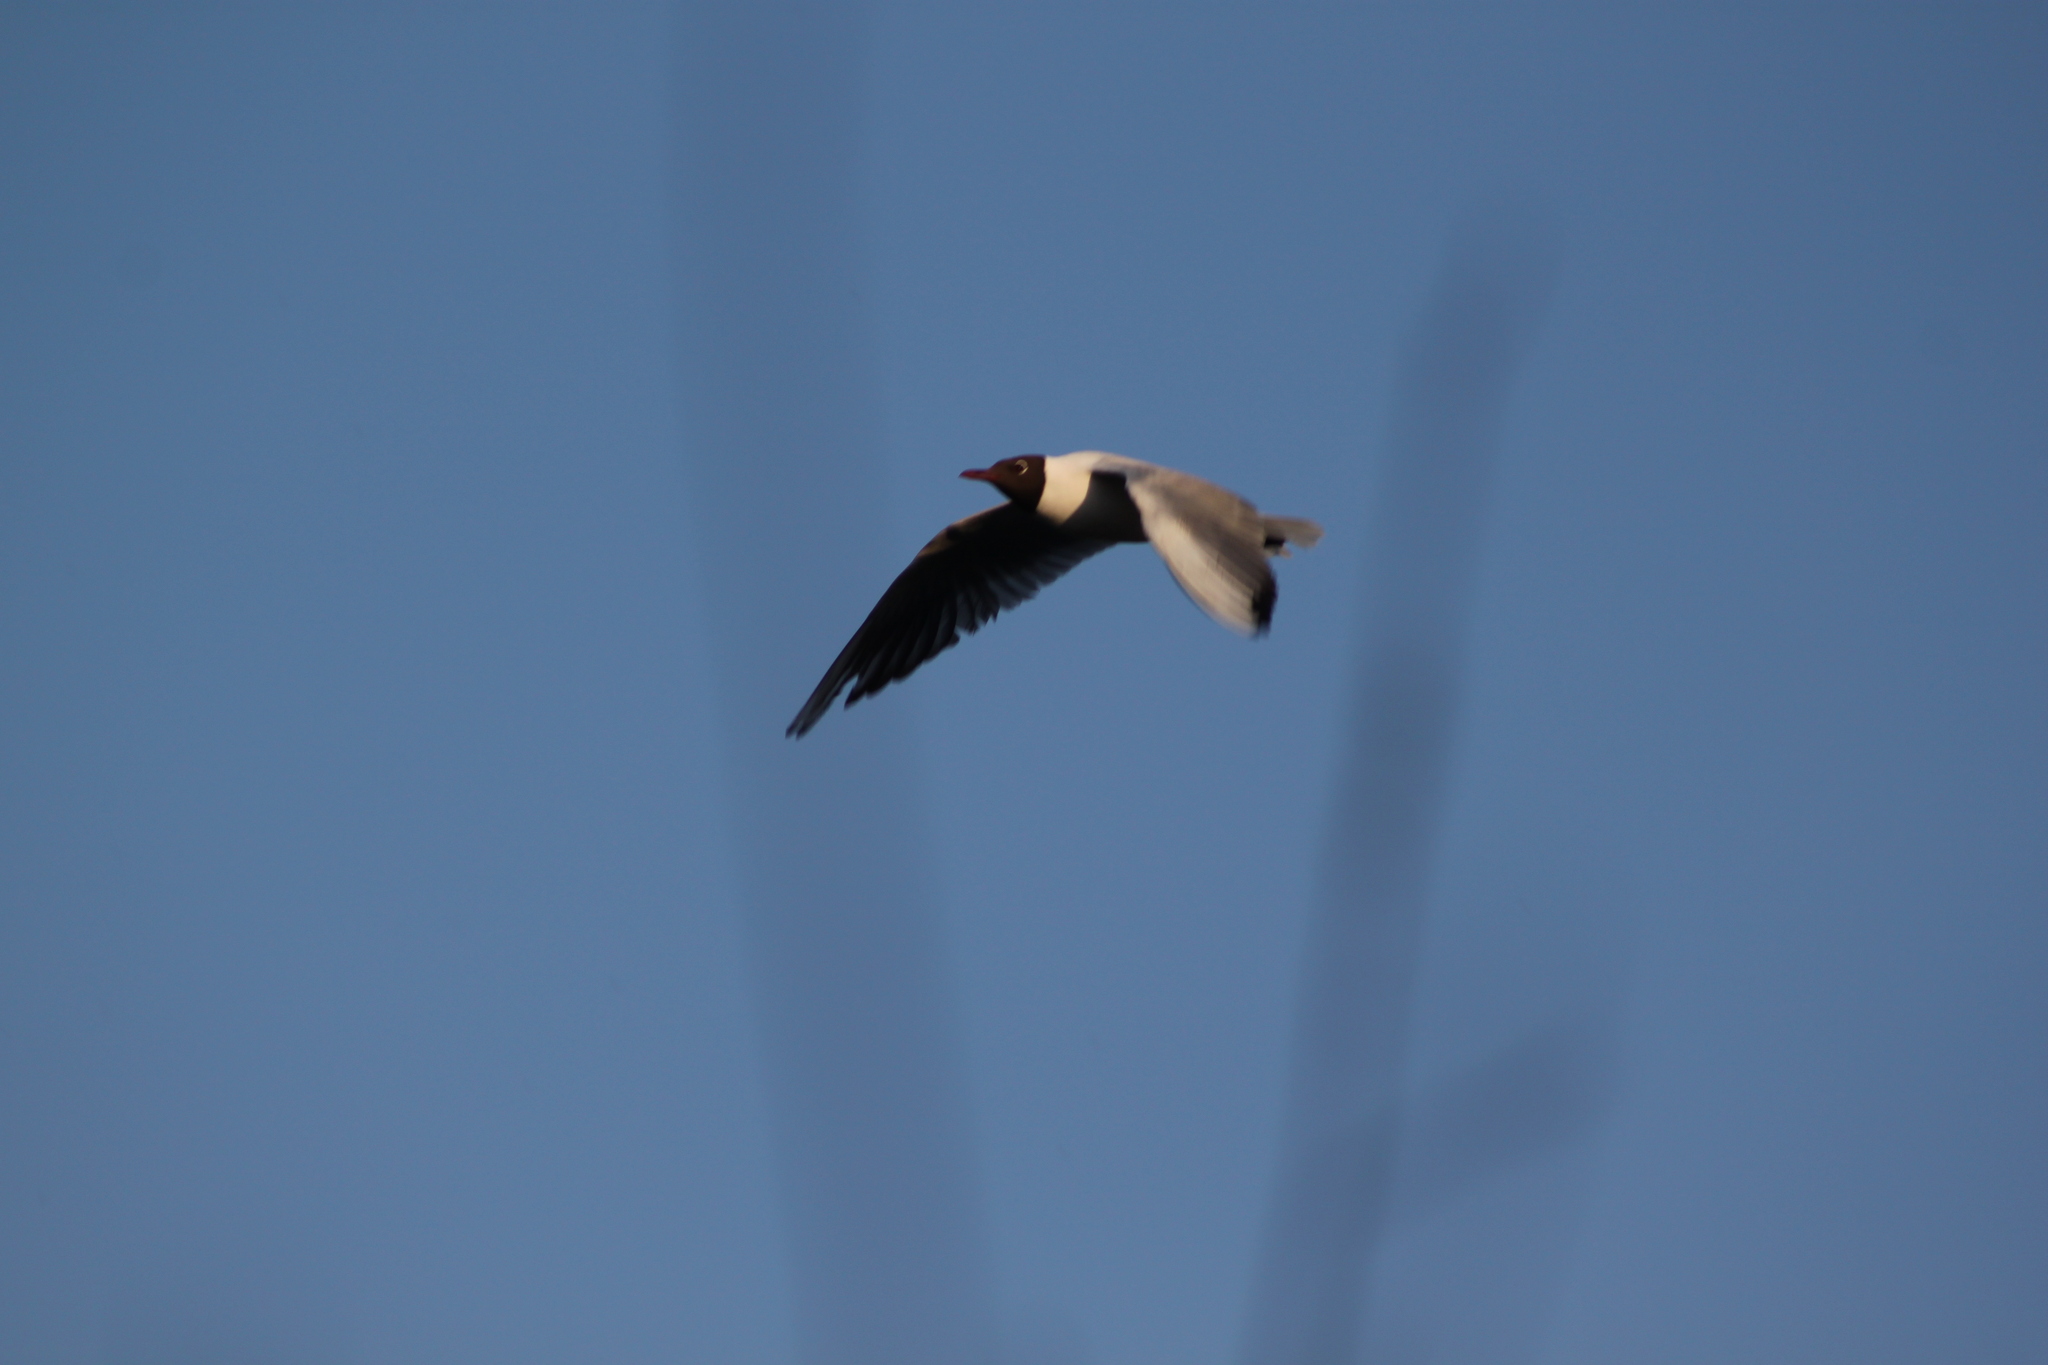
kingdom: Animalia
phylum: Chordata
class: Aves
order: Charadriiformes
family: Laridae
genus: Chroicocephalus
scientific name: Chroicocephalus ridibundus
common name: Black-headed gull
